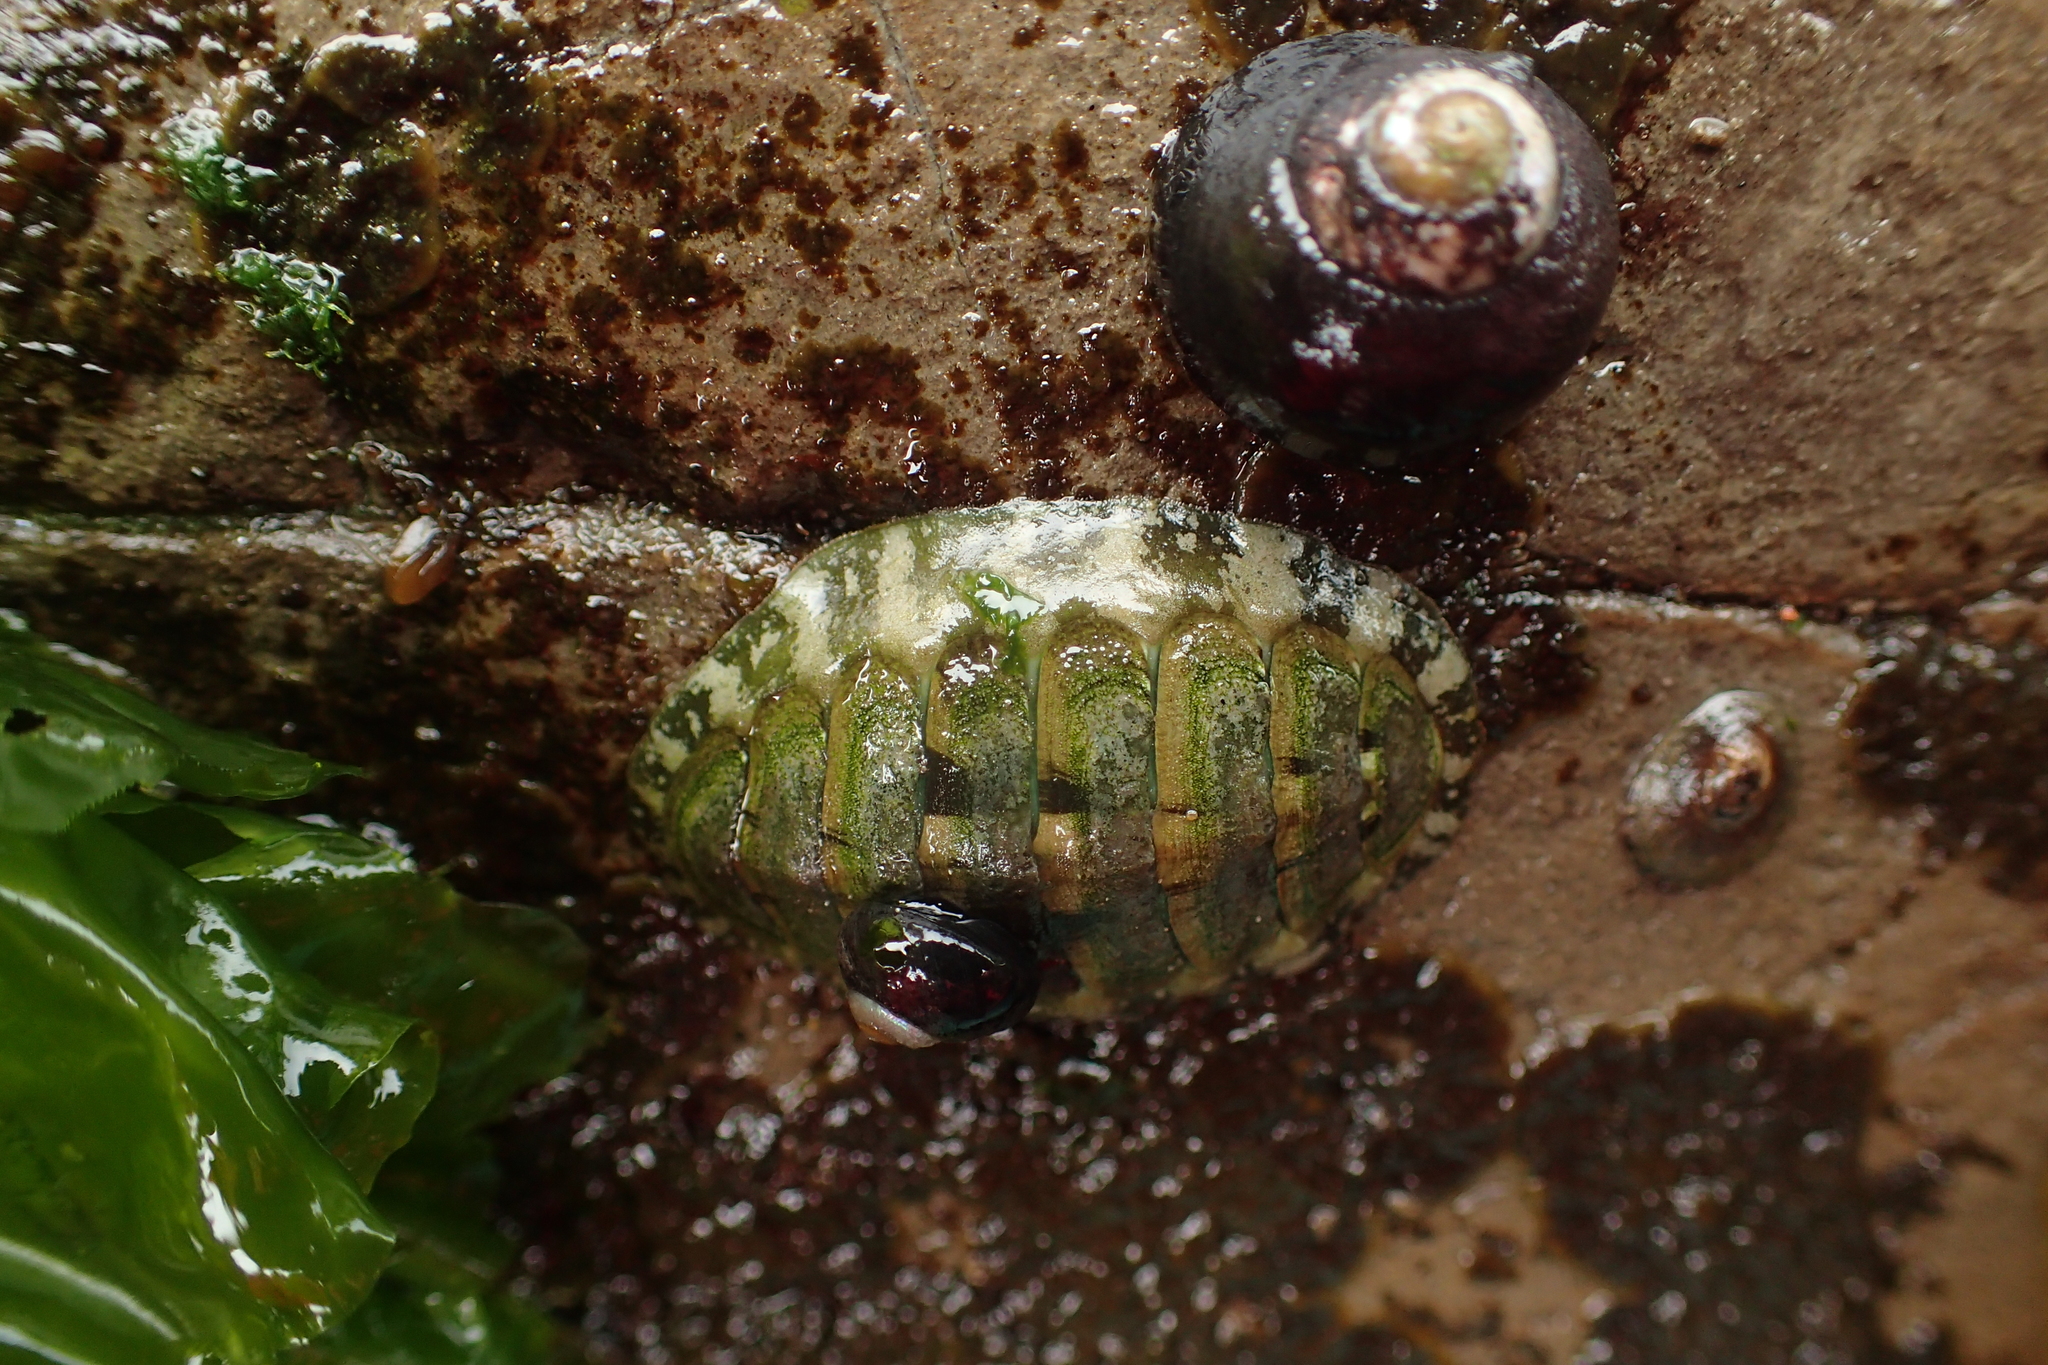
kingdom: Animalia
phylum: Mollusca
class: Polyplacophora
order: Chitonida
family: Tonicellidae
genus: Cyanoplax
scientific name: Cyanoplax hartwegii
